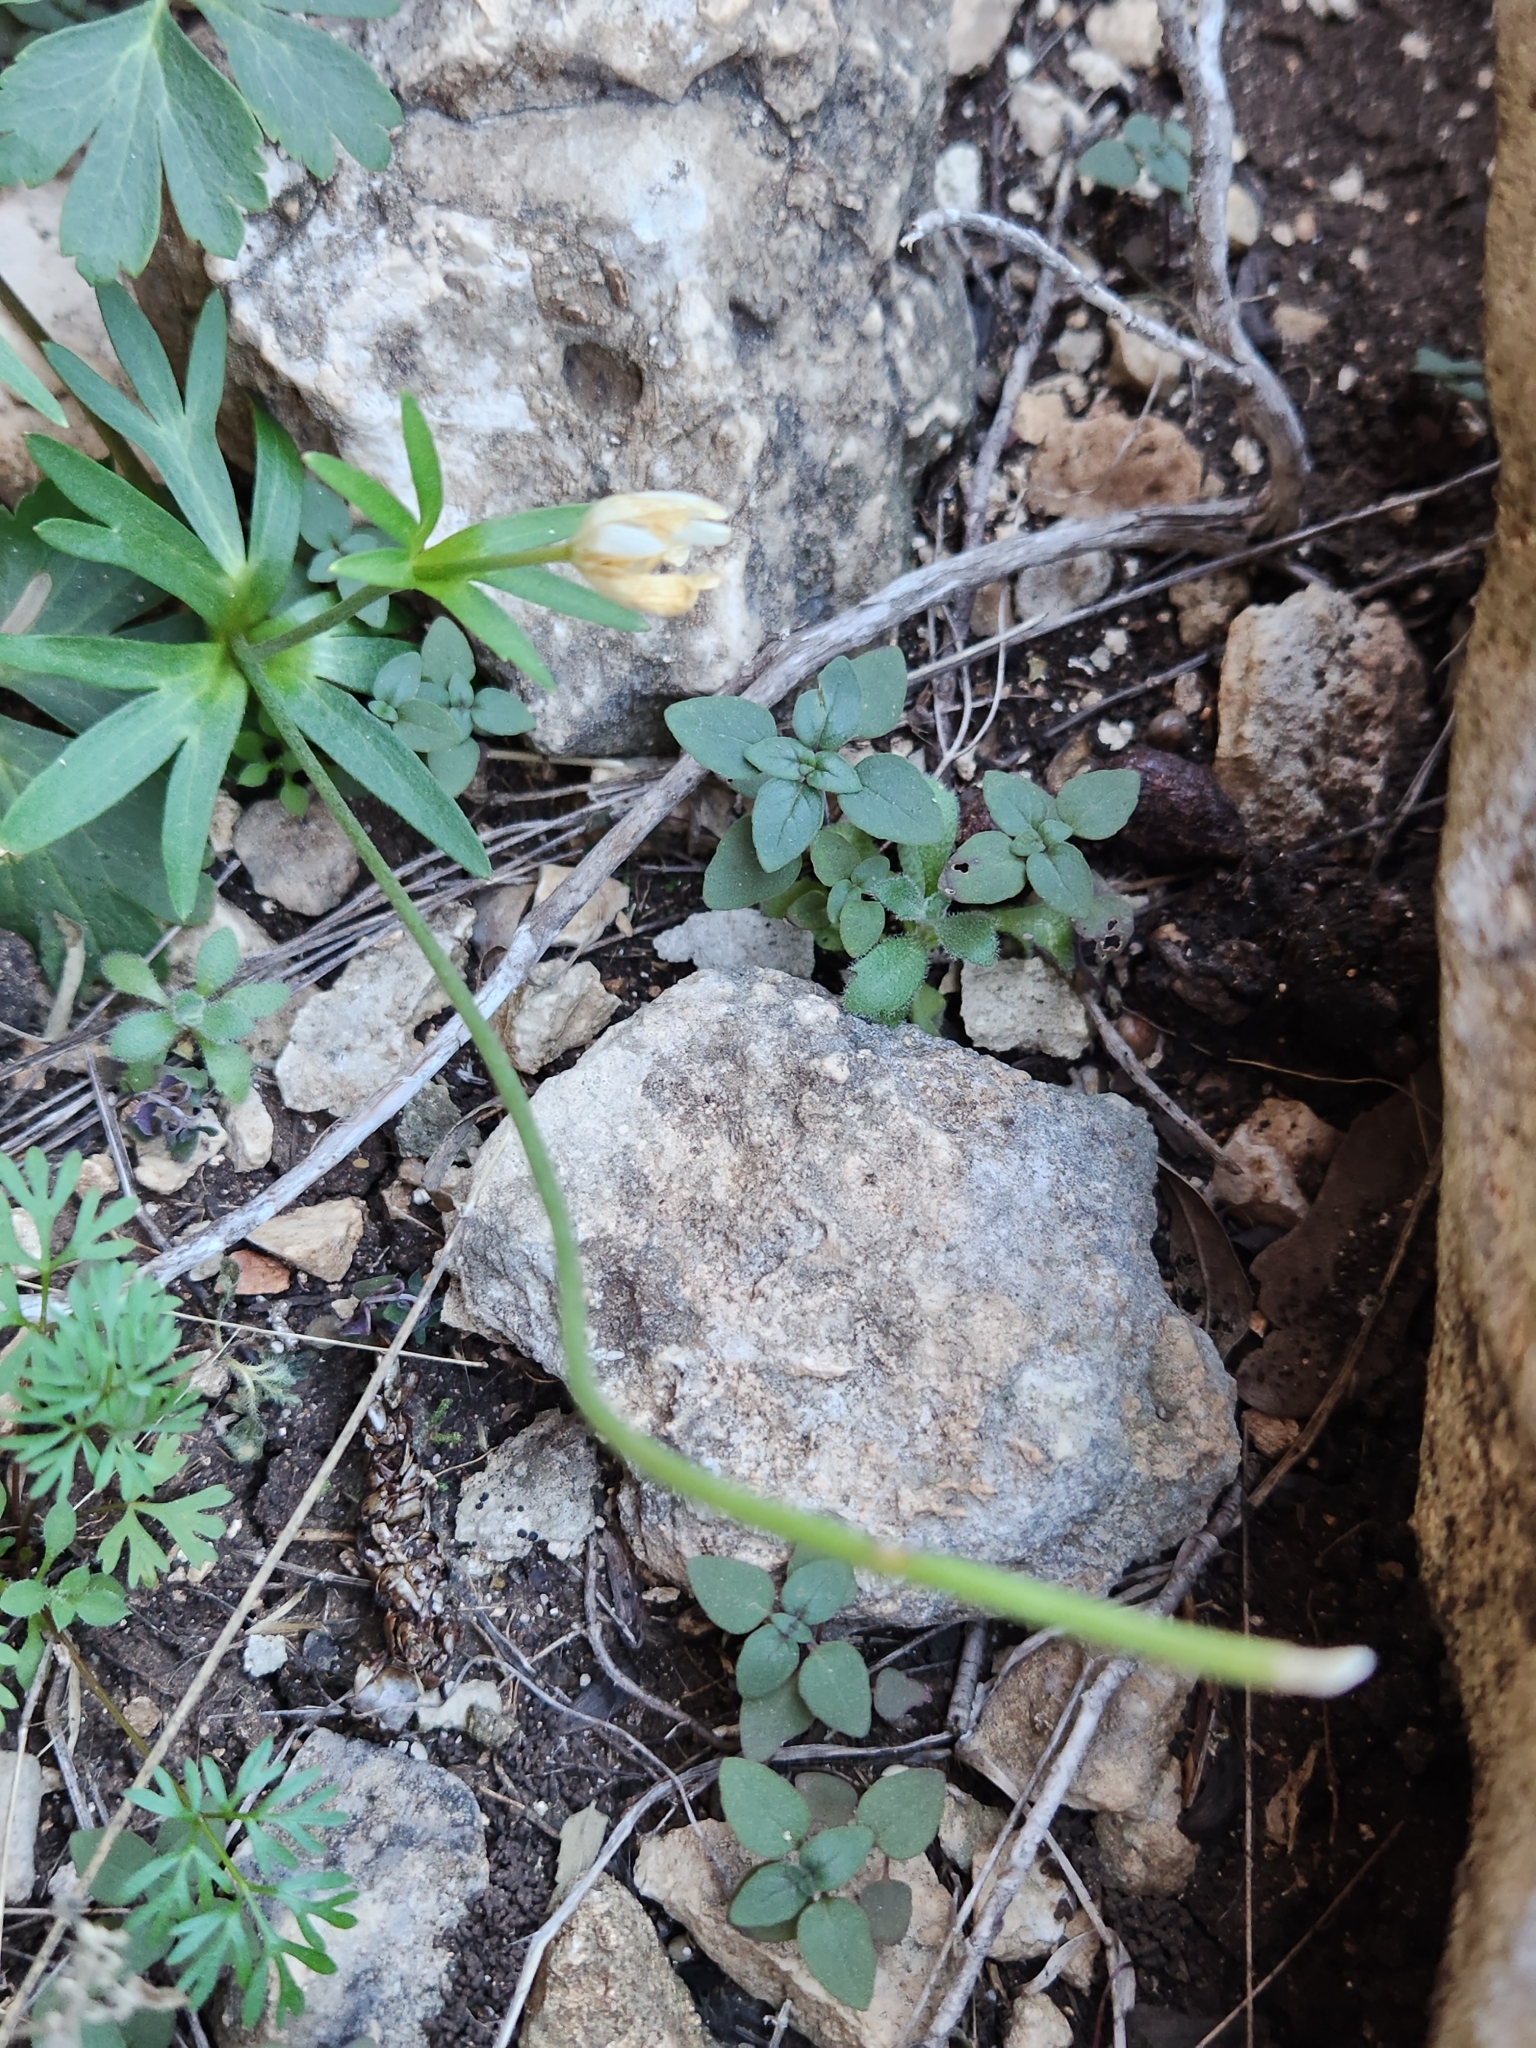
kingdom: Plantae
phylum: Tracheophyta
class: Magnoliopsida
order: Ranunculales
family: Ranunculaceae
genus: Anemone
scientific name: Anemone edwardsiana
